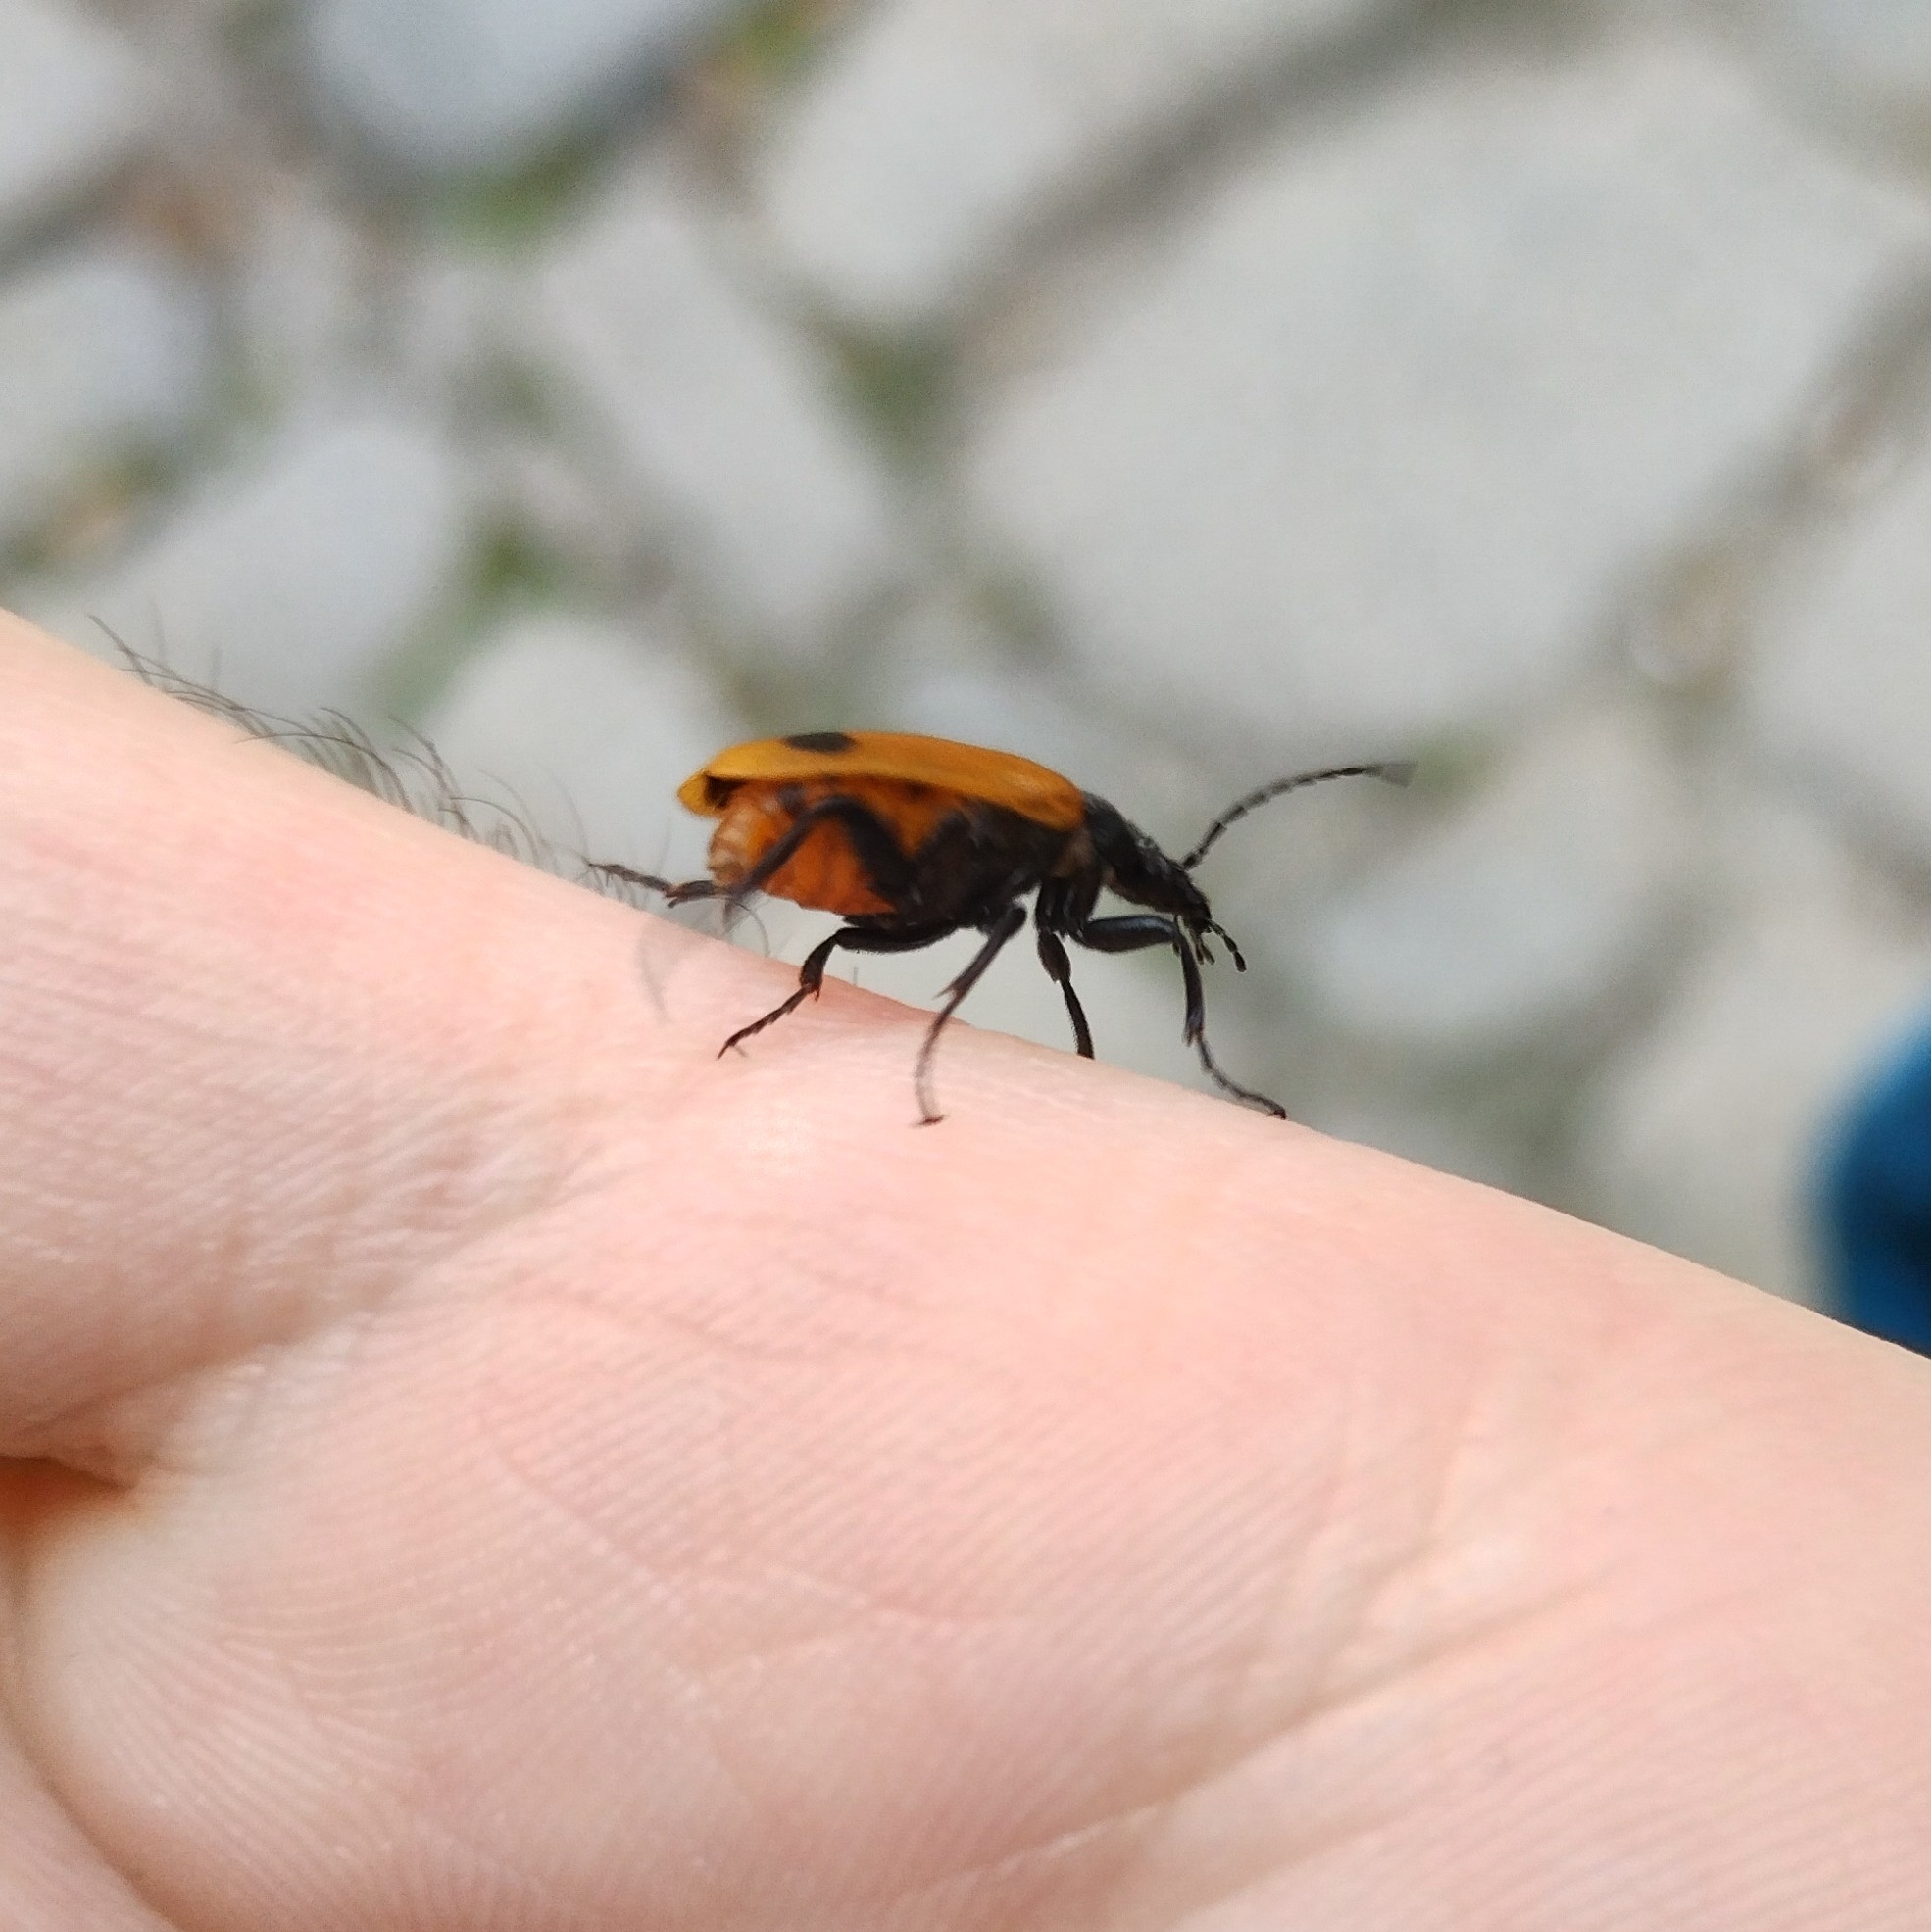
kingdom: Animalia
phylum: Arthropoda
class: Insecta
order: Coleoptera
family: Meloidae
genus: Apalus
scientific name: Apalus bimaculatus
